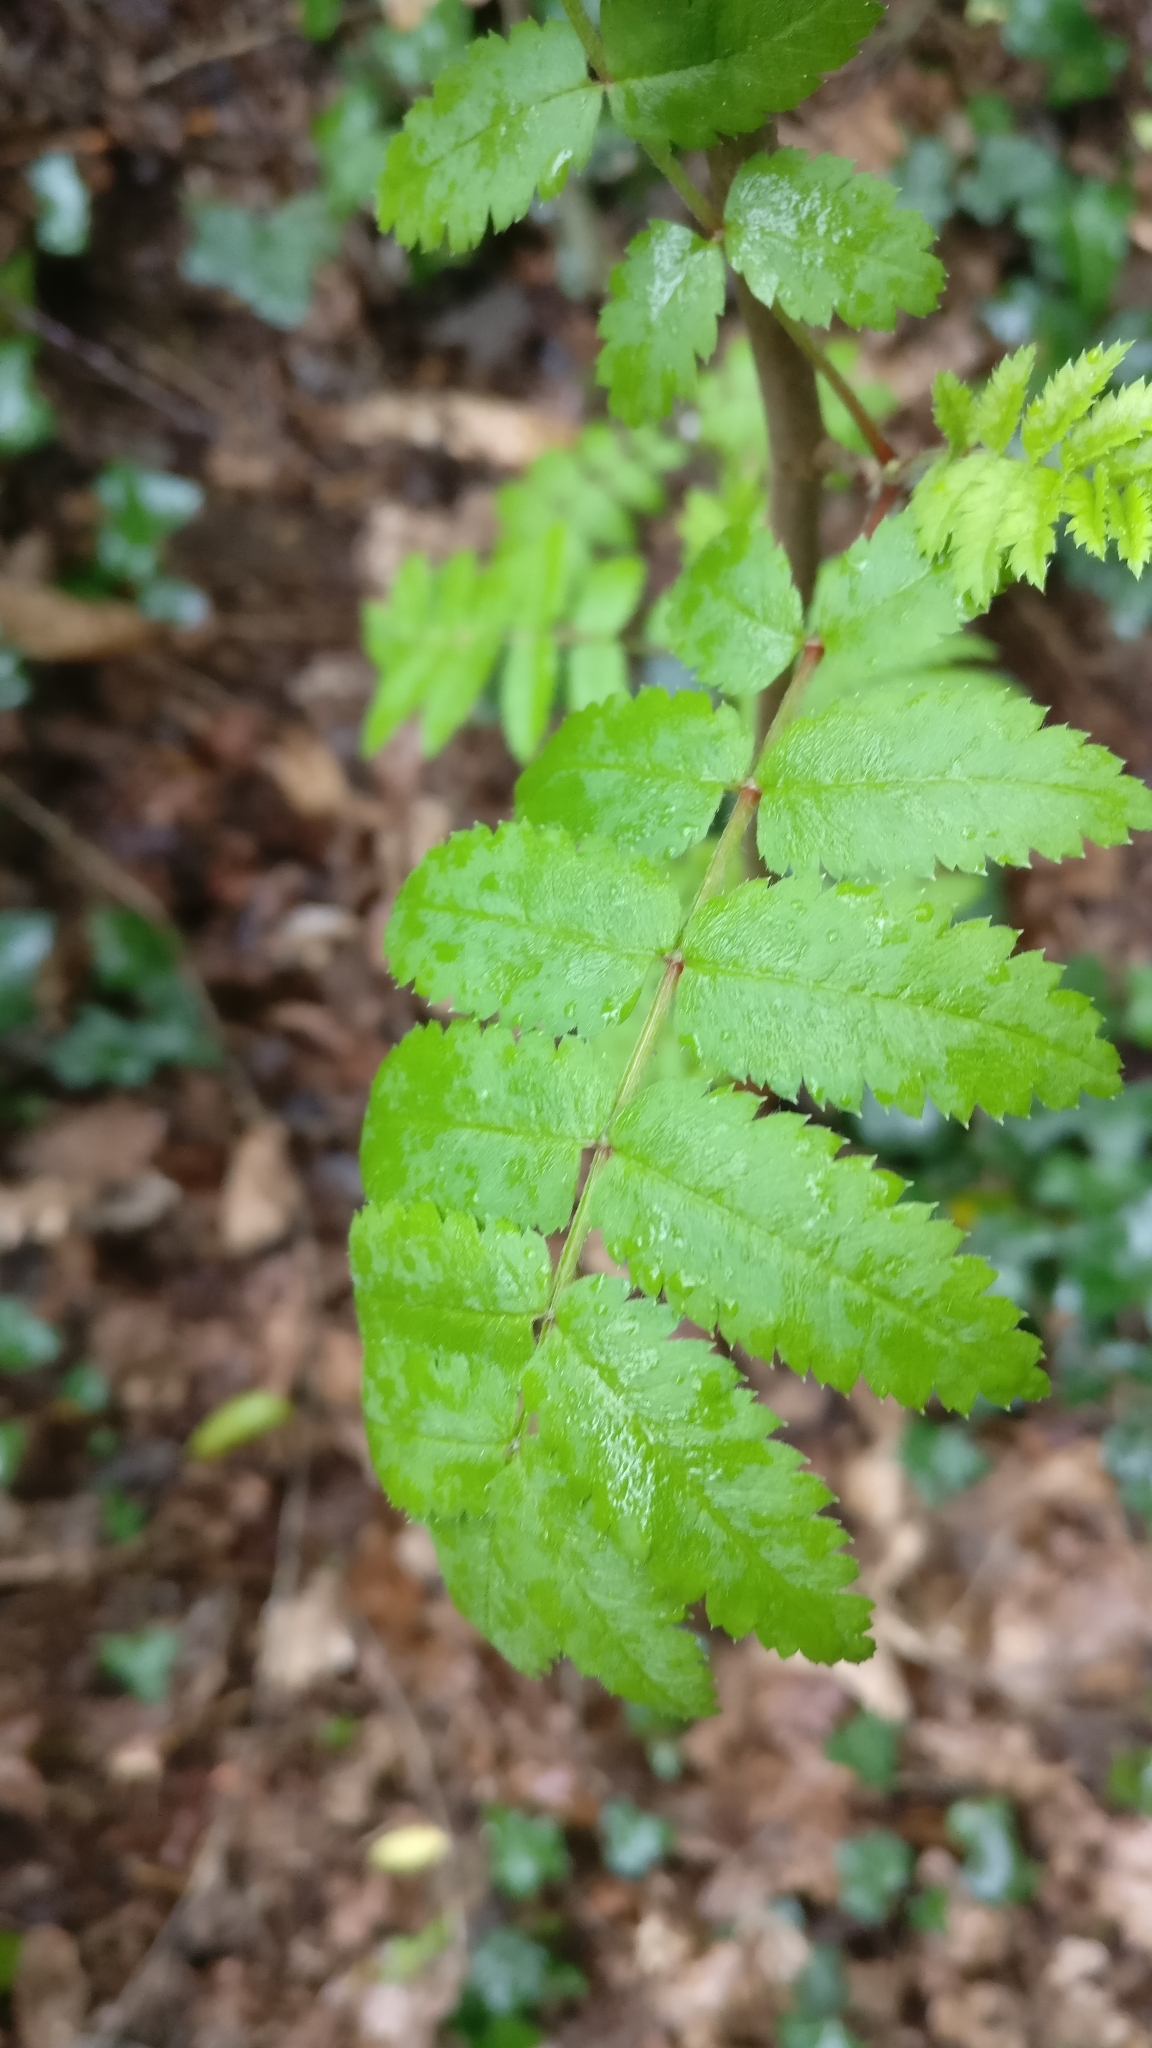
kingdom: Plantae
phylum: Tracheophyta
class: Magnoliopsida
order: Rosales
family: Rosaceae
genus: Sorbus
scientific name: Sorbus aucuparia
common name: Rowan
